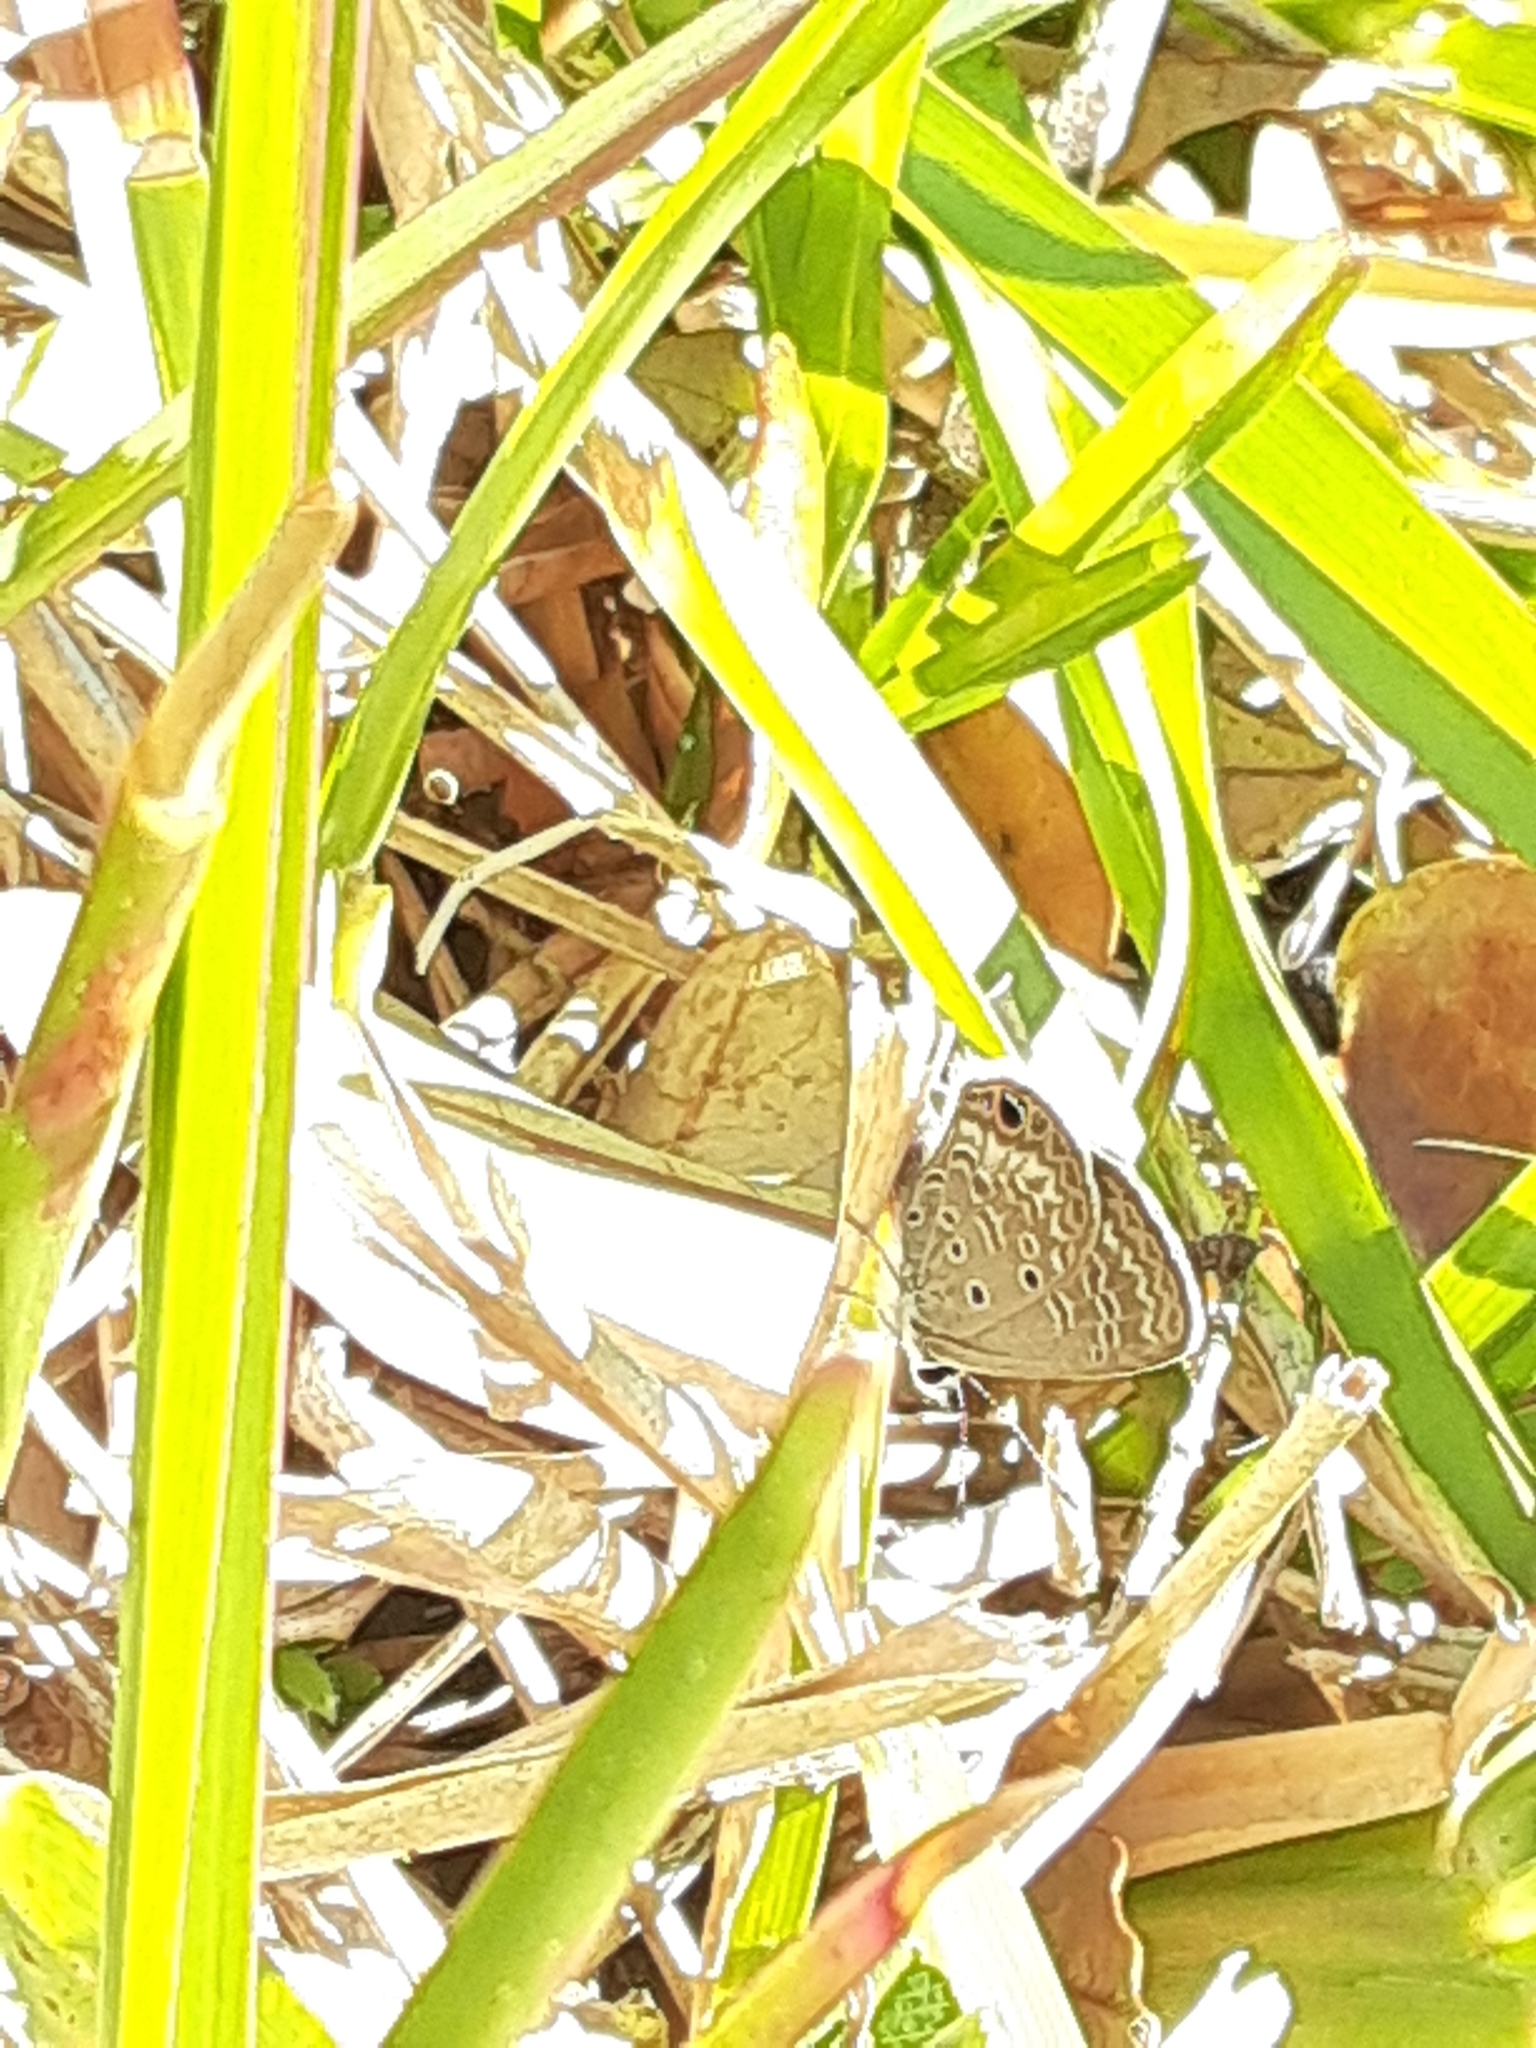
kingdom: Animalia
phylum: Arthropoda
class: Insecta
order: Lepidoptera
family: Lycaenidae
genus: Hemiargus
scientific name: Hemiargus ceraunus
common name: Ceraunus blue
